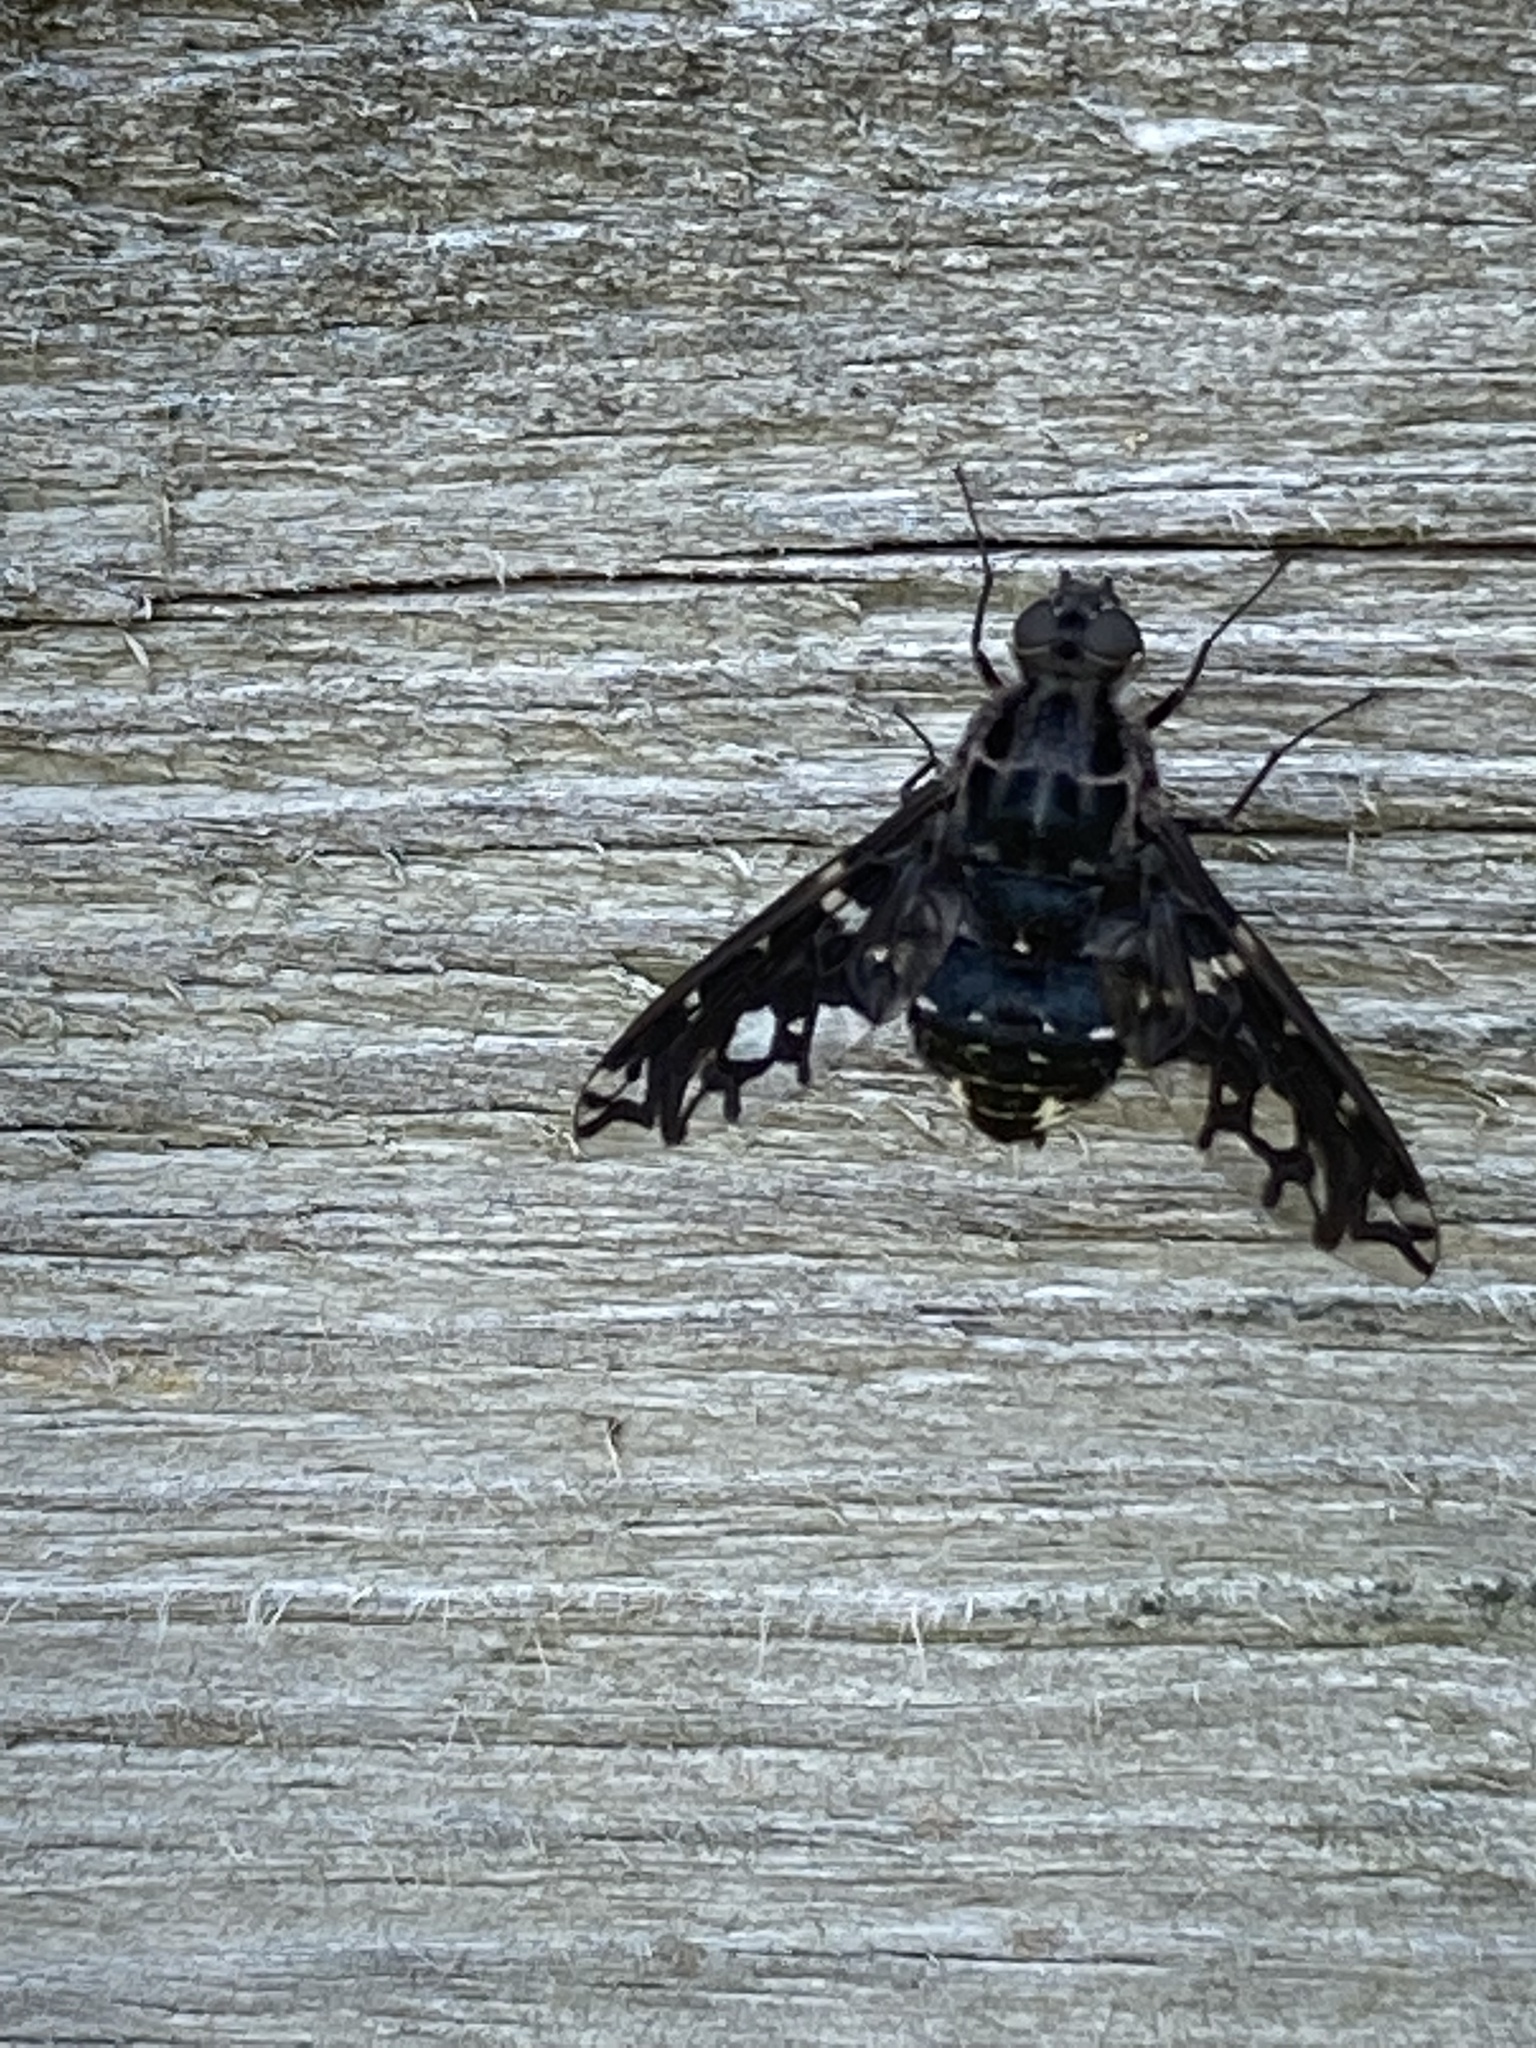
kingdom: Animalia
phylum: Arthropoda
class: Insecta
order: Diptera
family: Bombyliidae
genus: Xenox
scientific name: Xenox tigrinus
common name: Tiger bee fly
